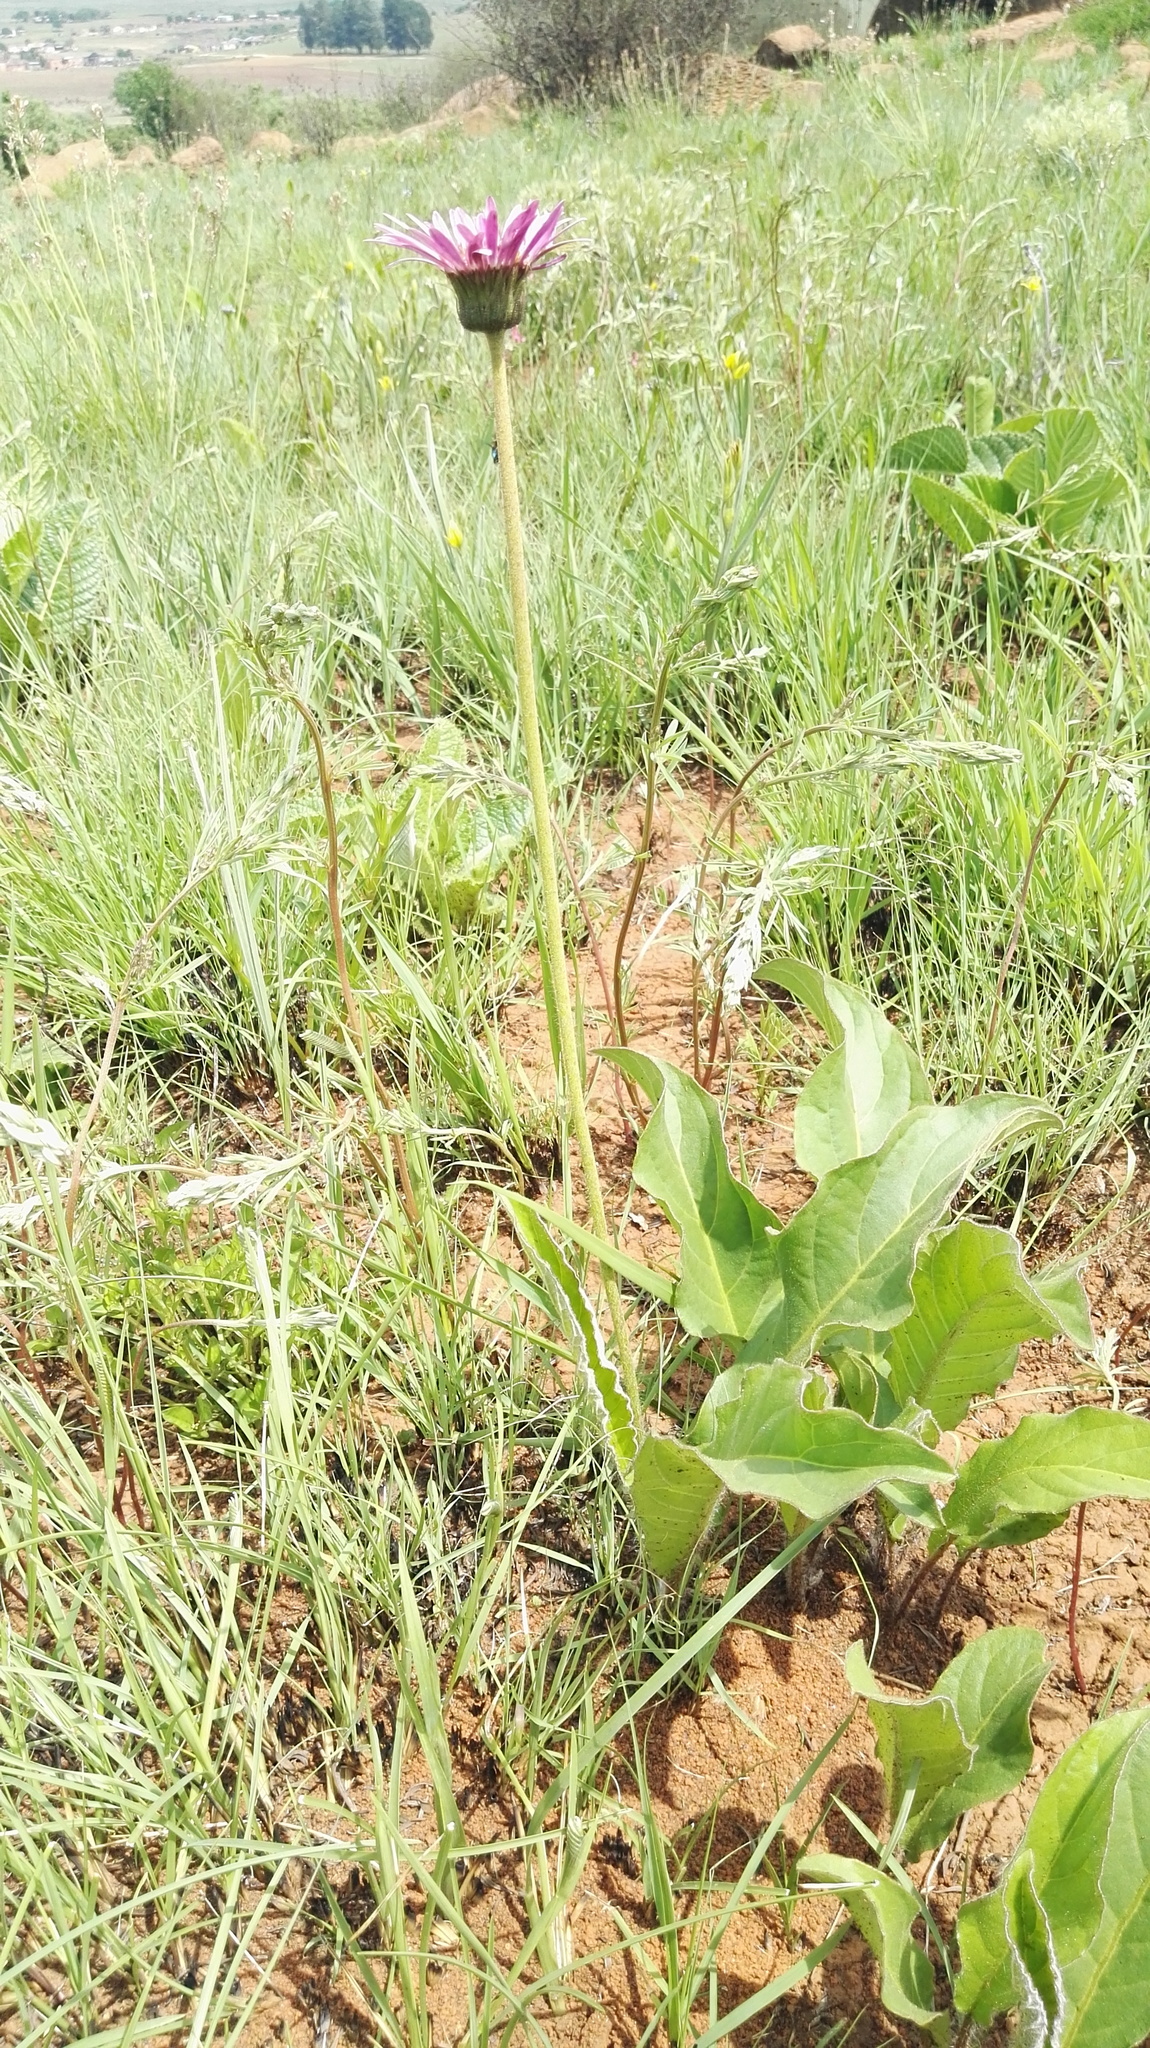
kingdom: Plantae
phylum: Tracheophyta
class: Magnoliopsida
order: Asterales
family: Asteraceae
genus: Gerbera
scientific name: Gerbera ambigua
